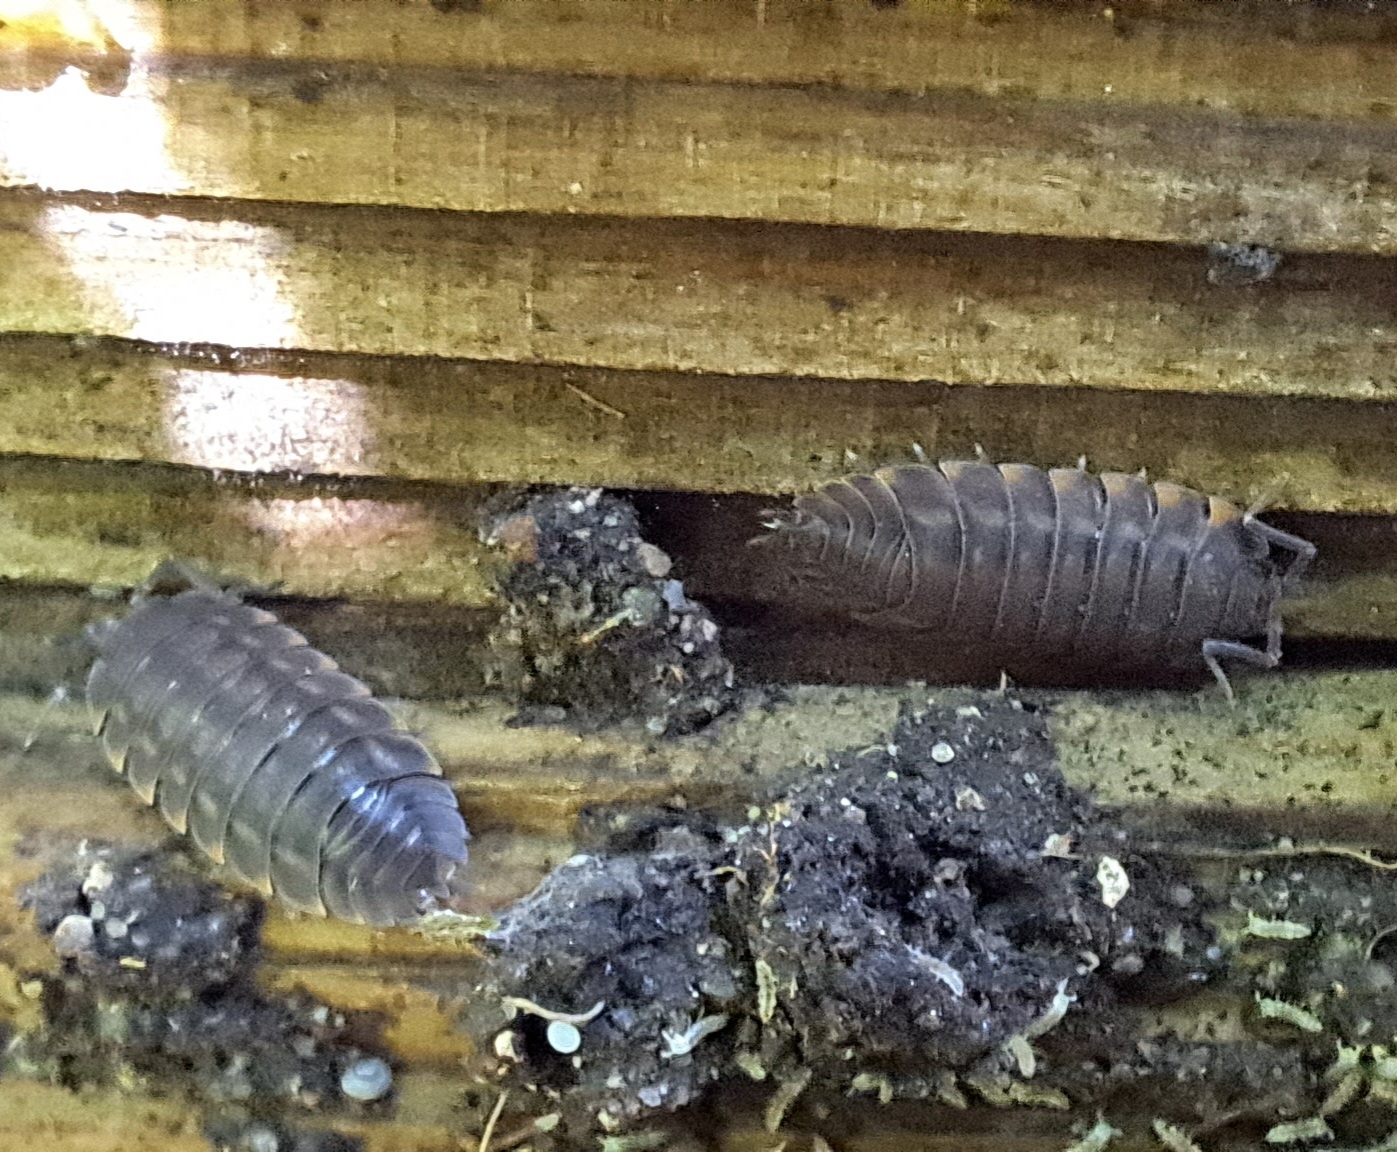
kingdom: Animalia
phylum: Arthropoda
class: Malacostraca
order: Isopoda
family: Trachelipodidae
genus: Trachelipus
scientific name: Trachelipus ratzeburgii
